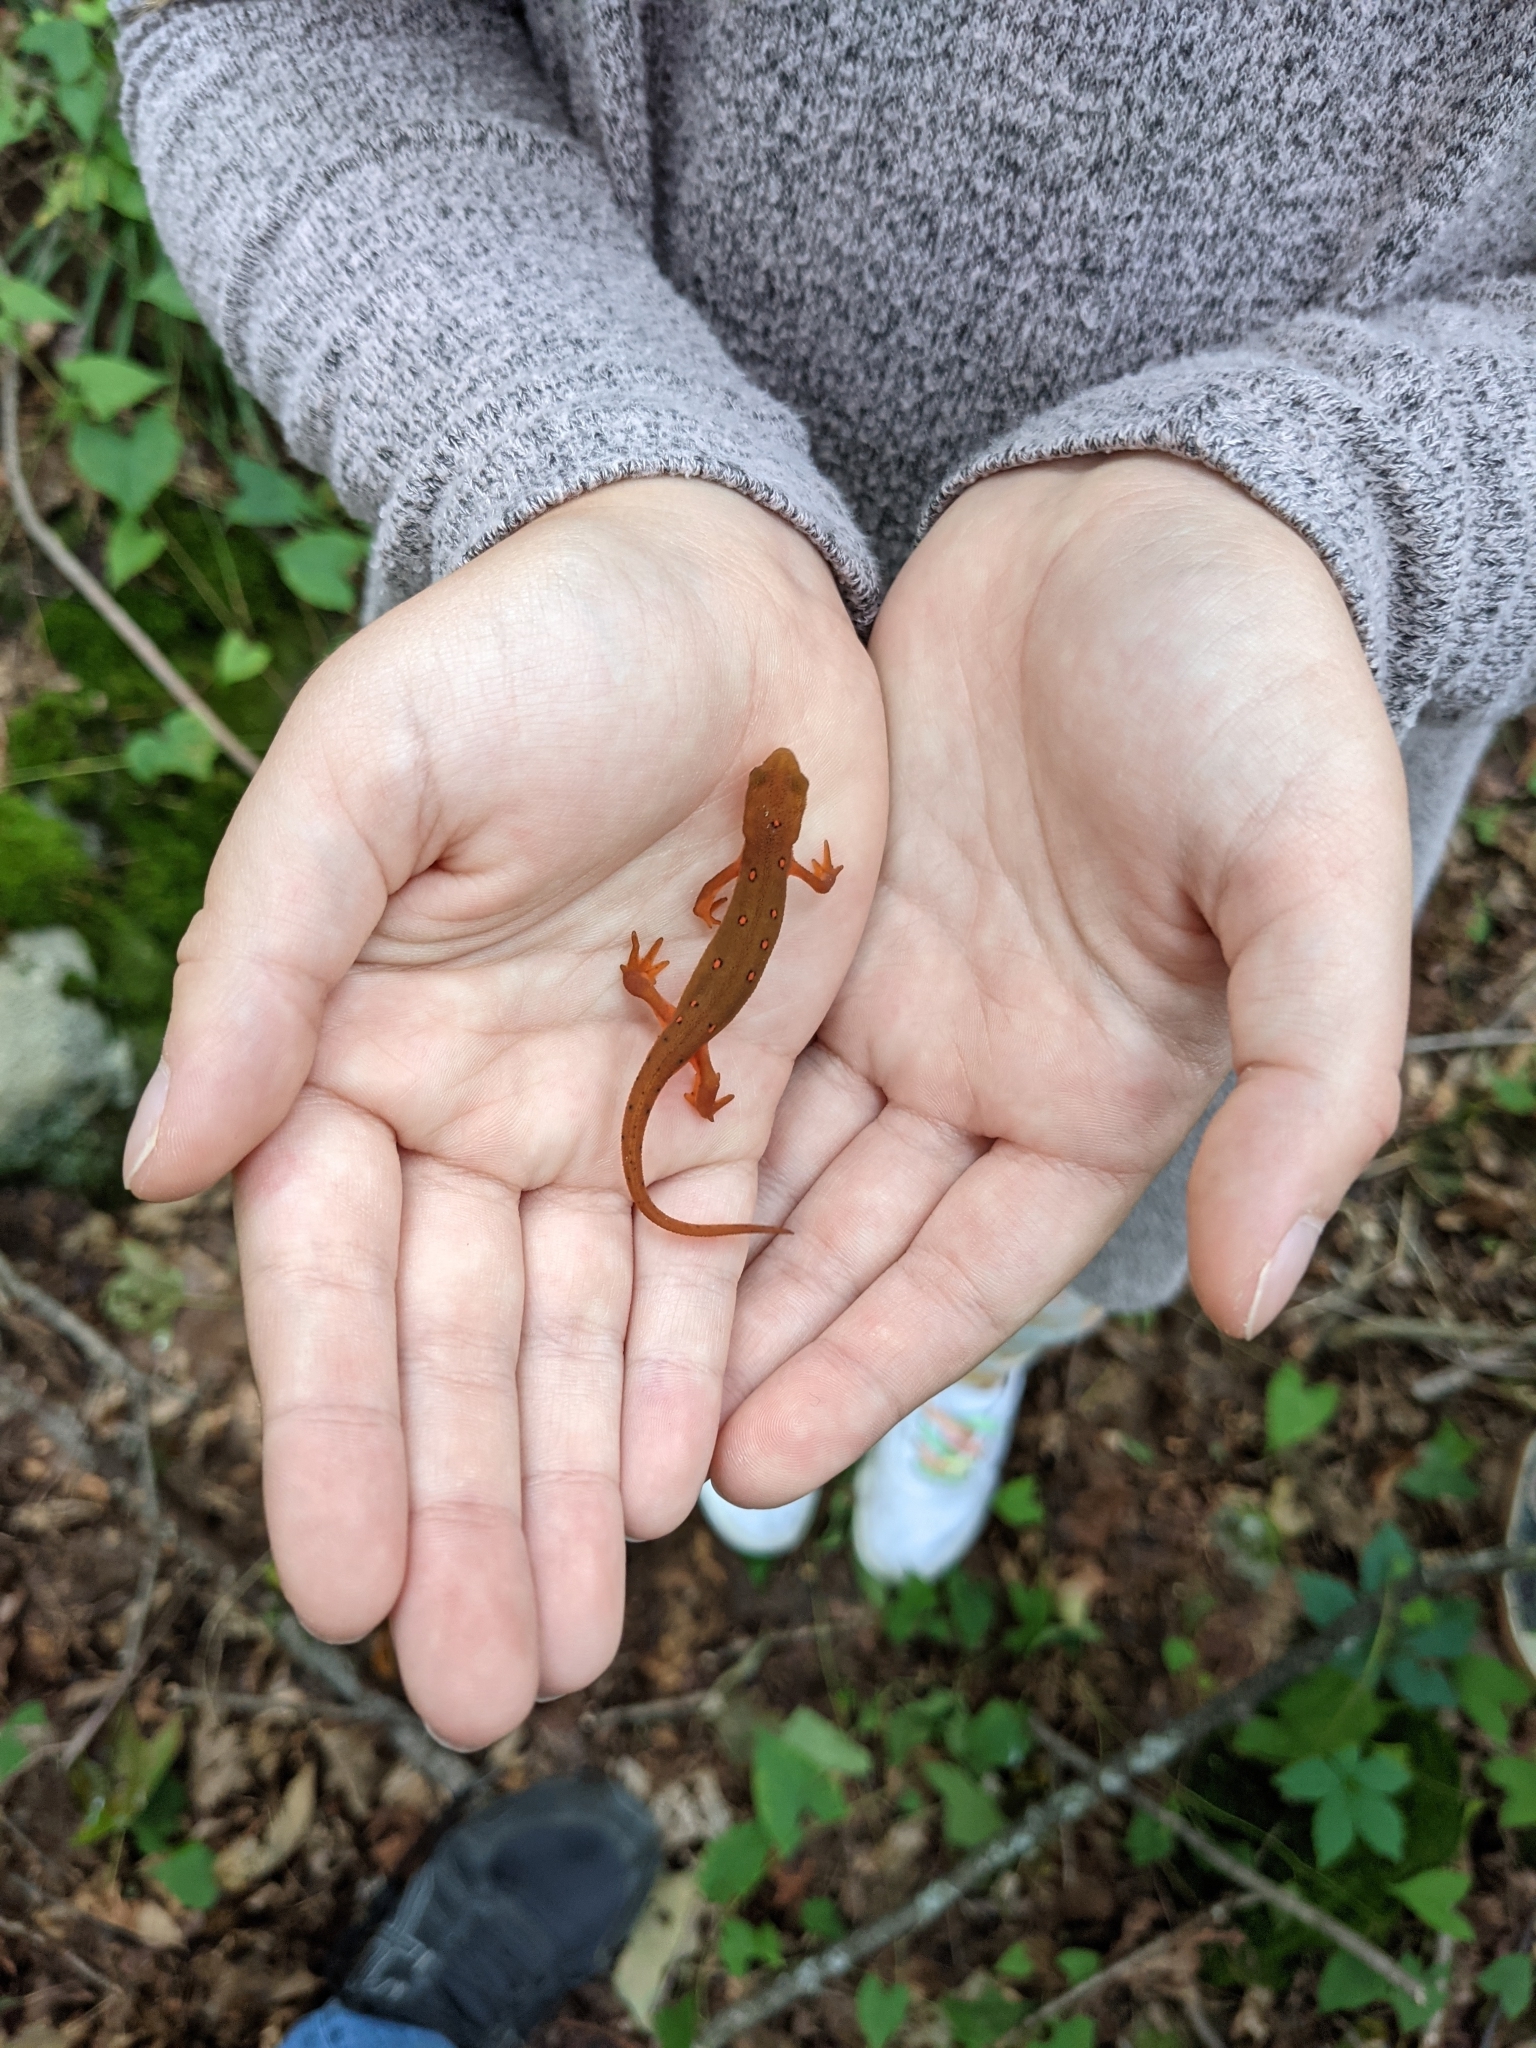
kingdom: Animalia
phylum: Chordata
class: Amphibia
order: Caudata
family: Salamandridae
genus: Notophthalmus
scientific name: Notophthalmus viridescens
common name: Eastern newt
